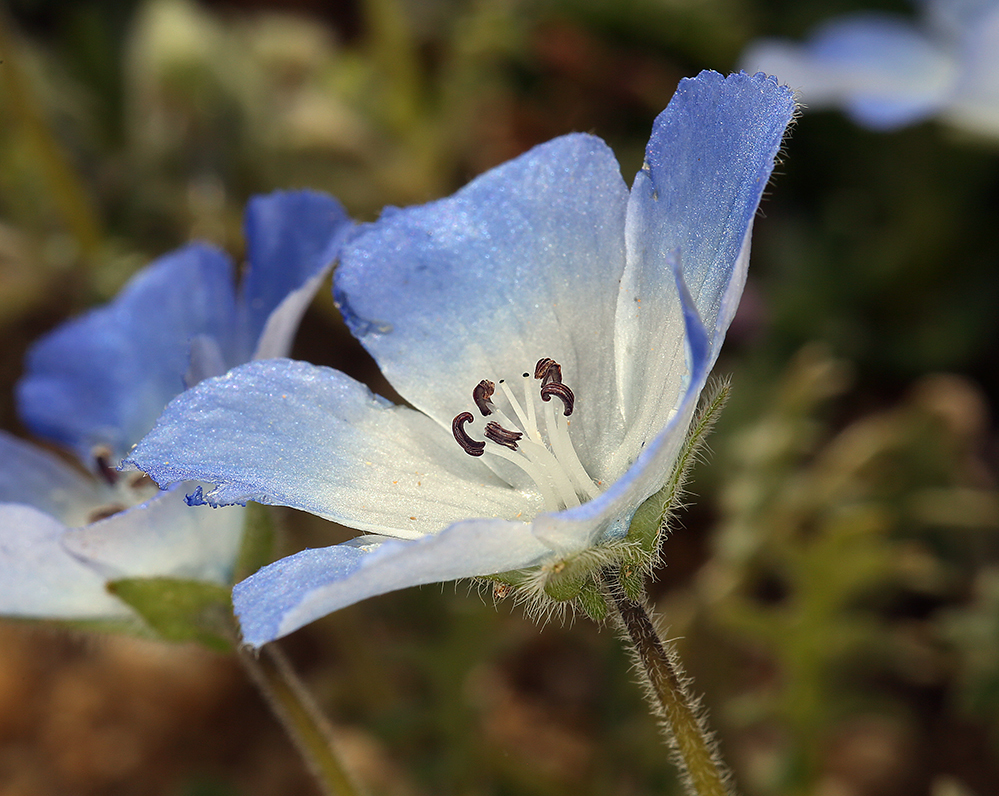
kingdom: Plantae
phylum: Tracheophyta
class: Magnoliopsida
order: Boraginales
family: Hydrophyllaceae
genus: Nemophila
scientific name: Nemophila menziesii
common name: Baby's-blue-eyes
